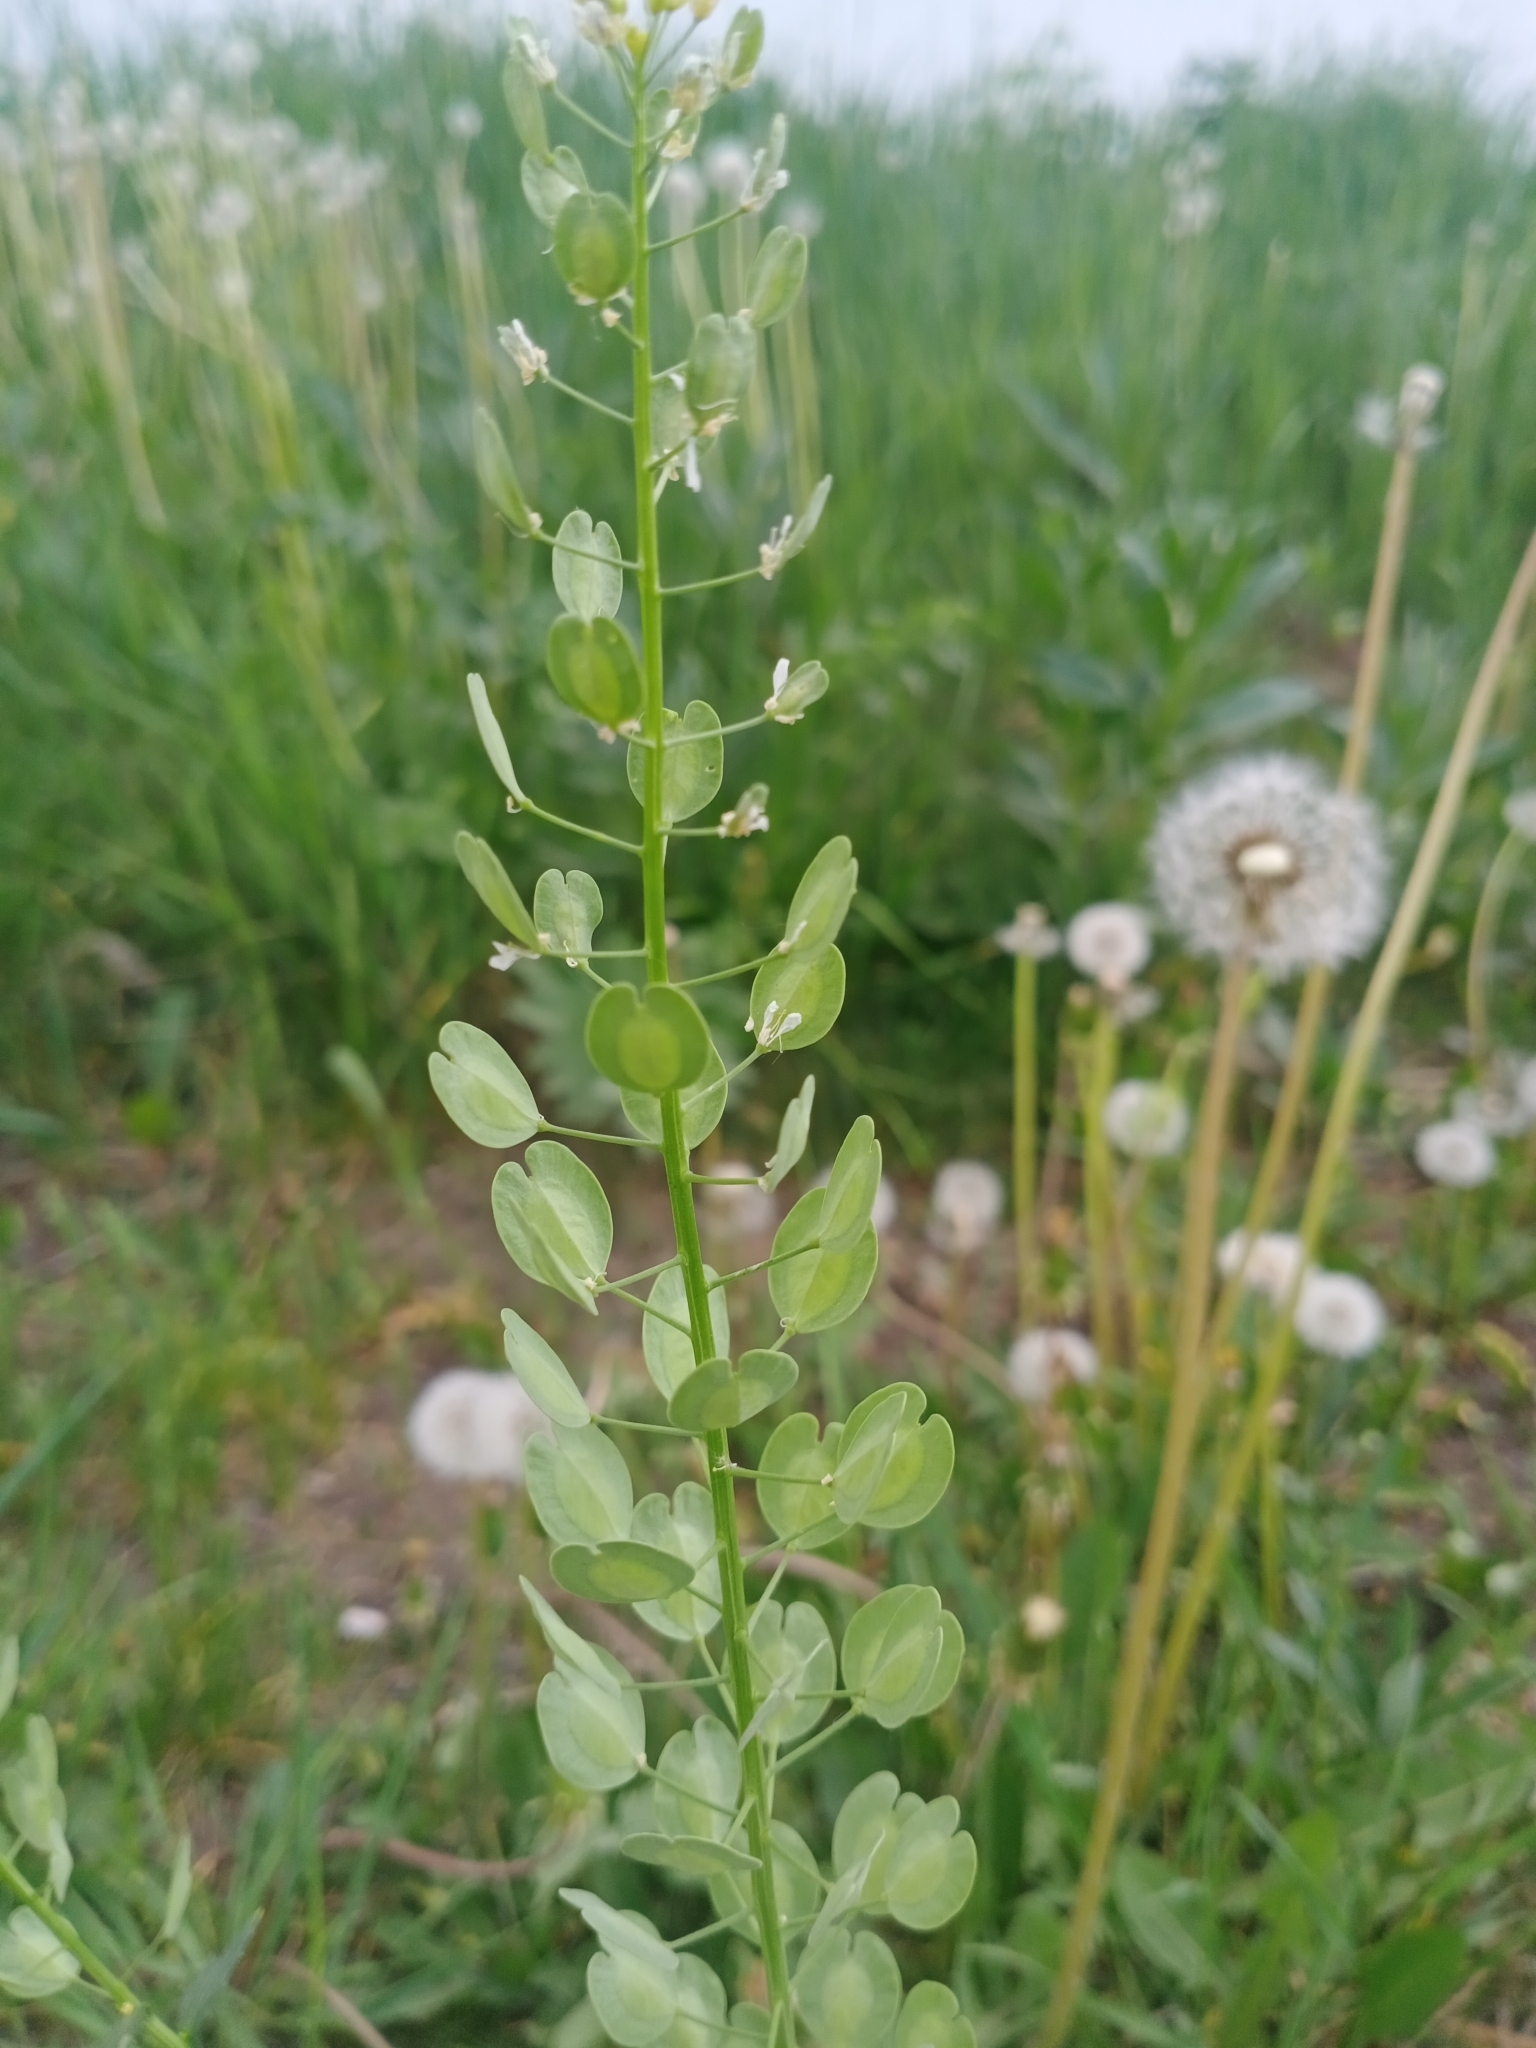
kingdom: Plantae
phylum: Tracheophyta
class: Magnoliopsida
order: Brassicales
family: Brassicaceae
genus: Thlaspi
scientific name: Thlaspi arvense
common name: Field pennycress
